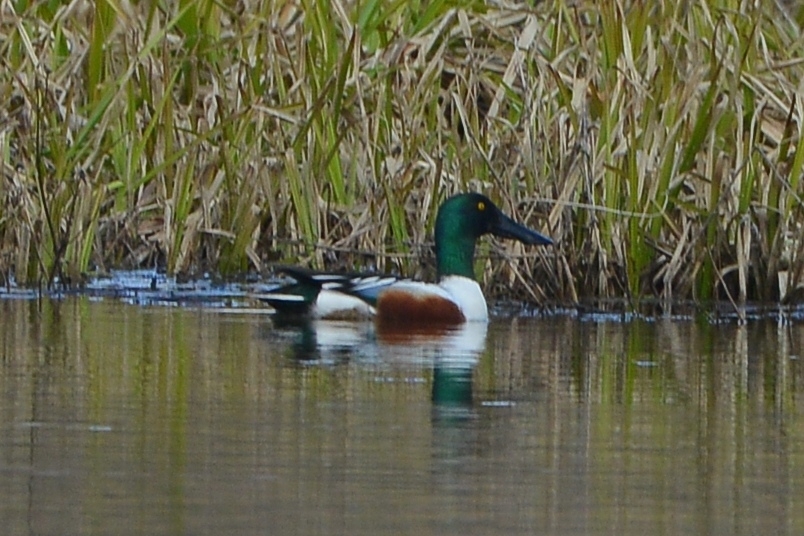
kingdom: Animalia
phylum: Chordata
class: Aves
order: Anseriformes
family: Anatidae
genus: Spatula
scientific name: Spatula clypeata
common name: Northern shoveler
